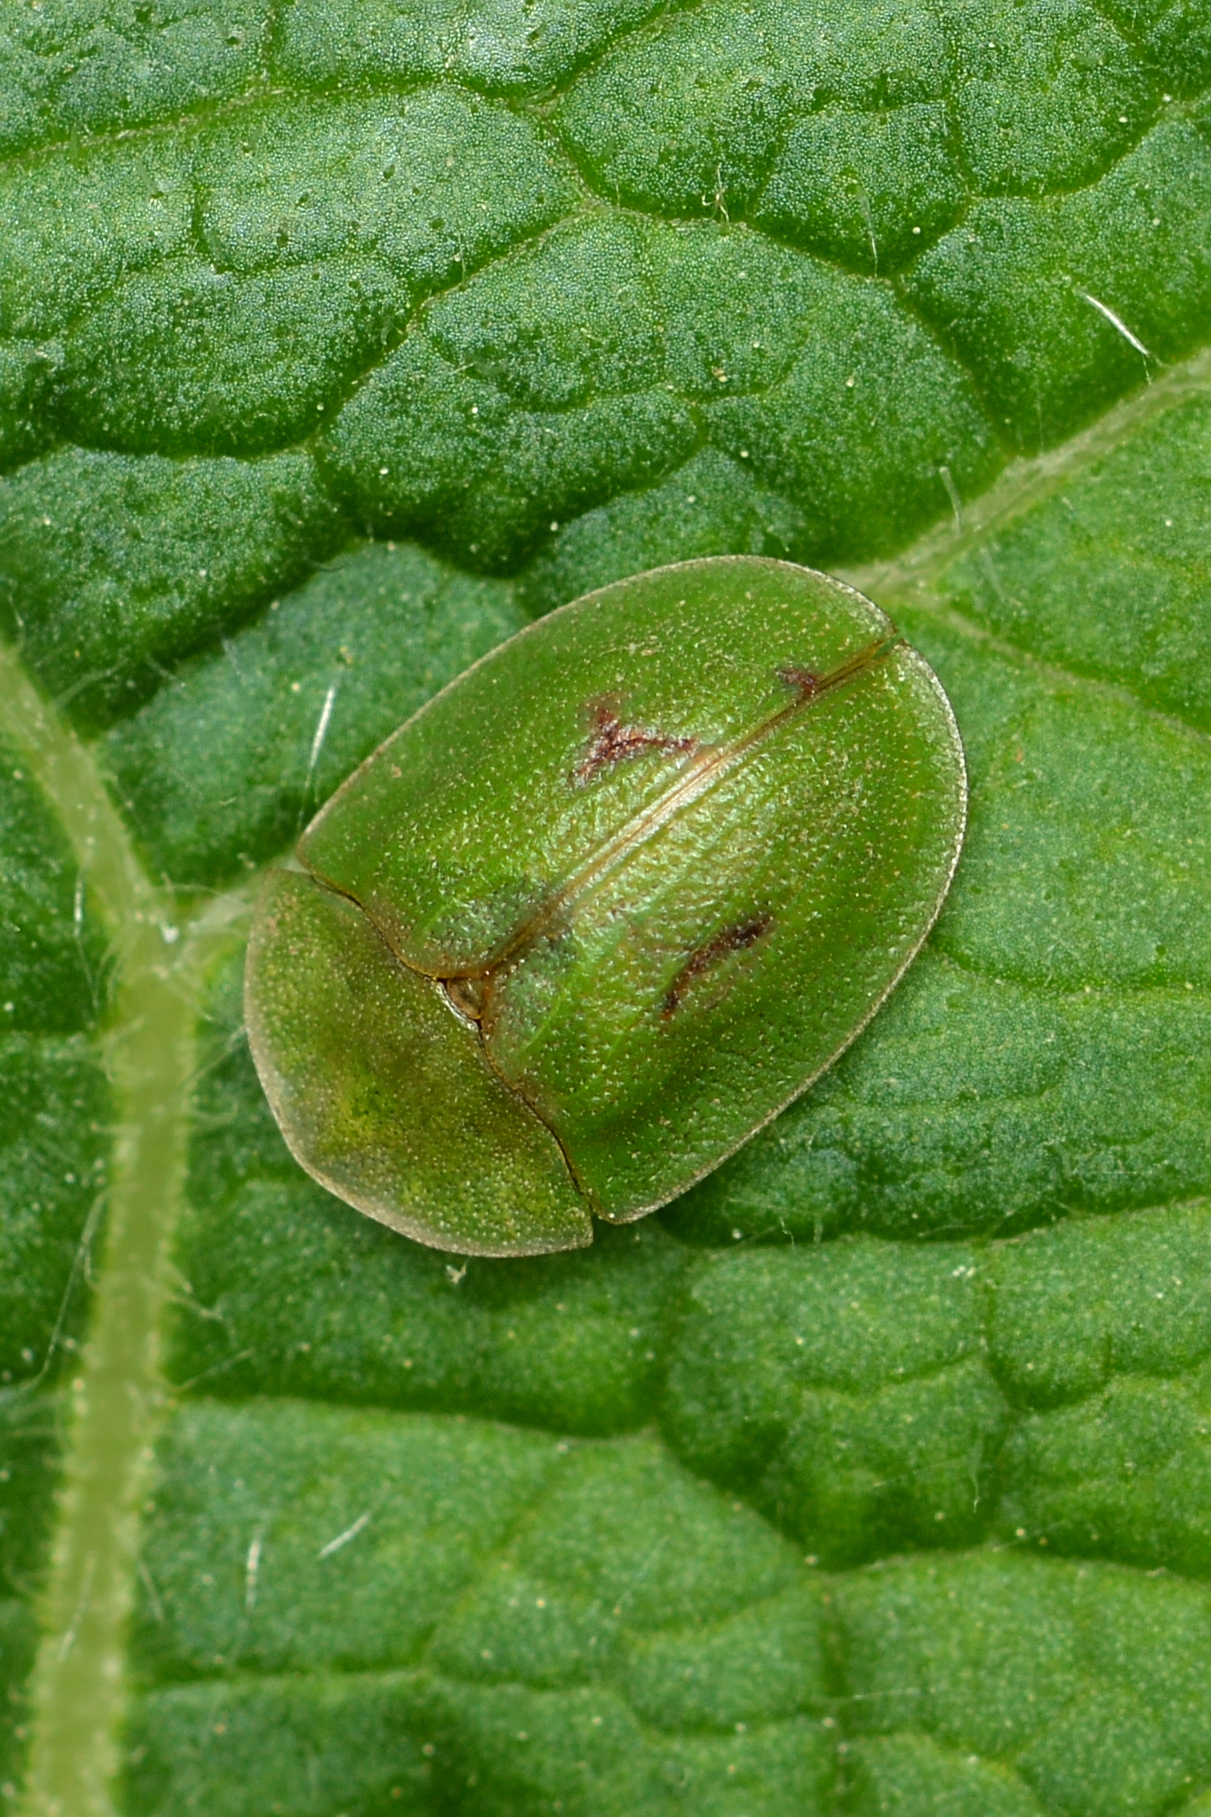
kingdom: Animalia
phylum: Arthropoda
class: Insecta
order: Coleoptera
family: Chrysomelidae
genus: Cassida
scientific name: Cassida rubiginosa
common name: Thistle tortoise beetle
